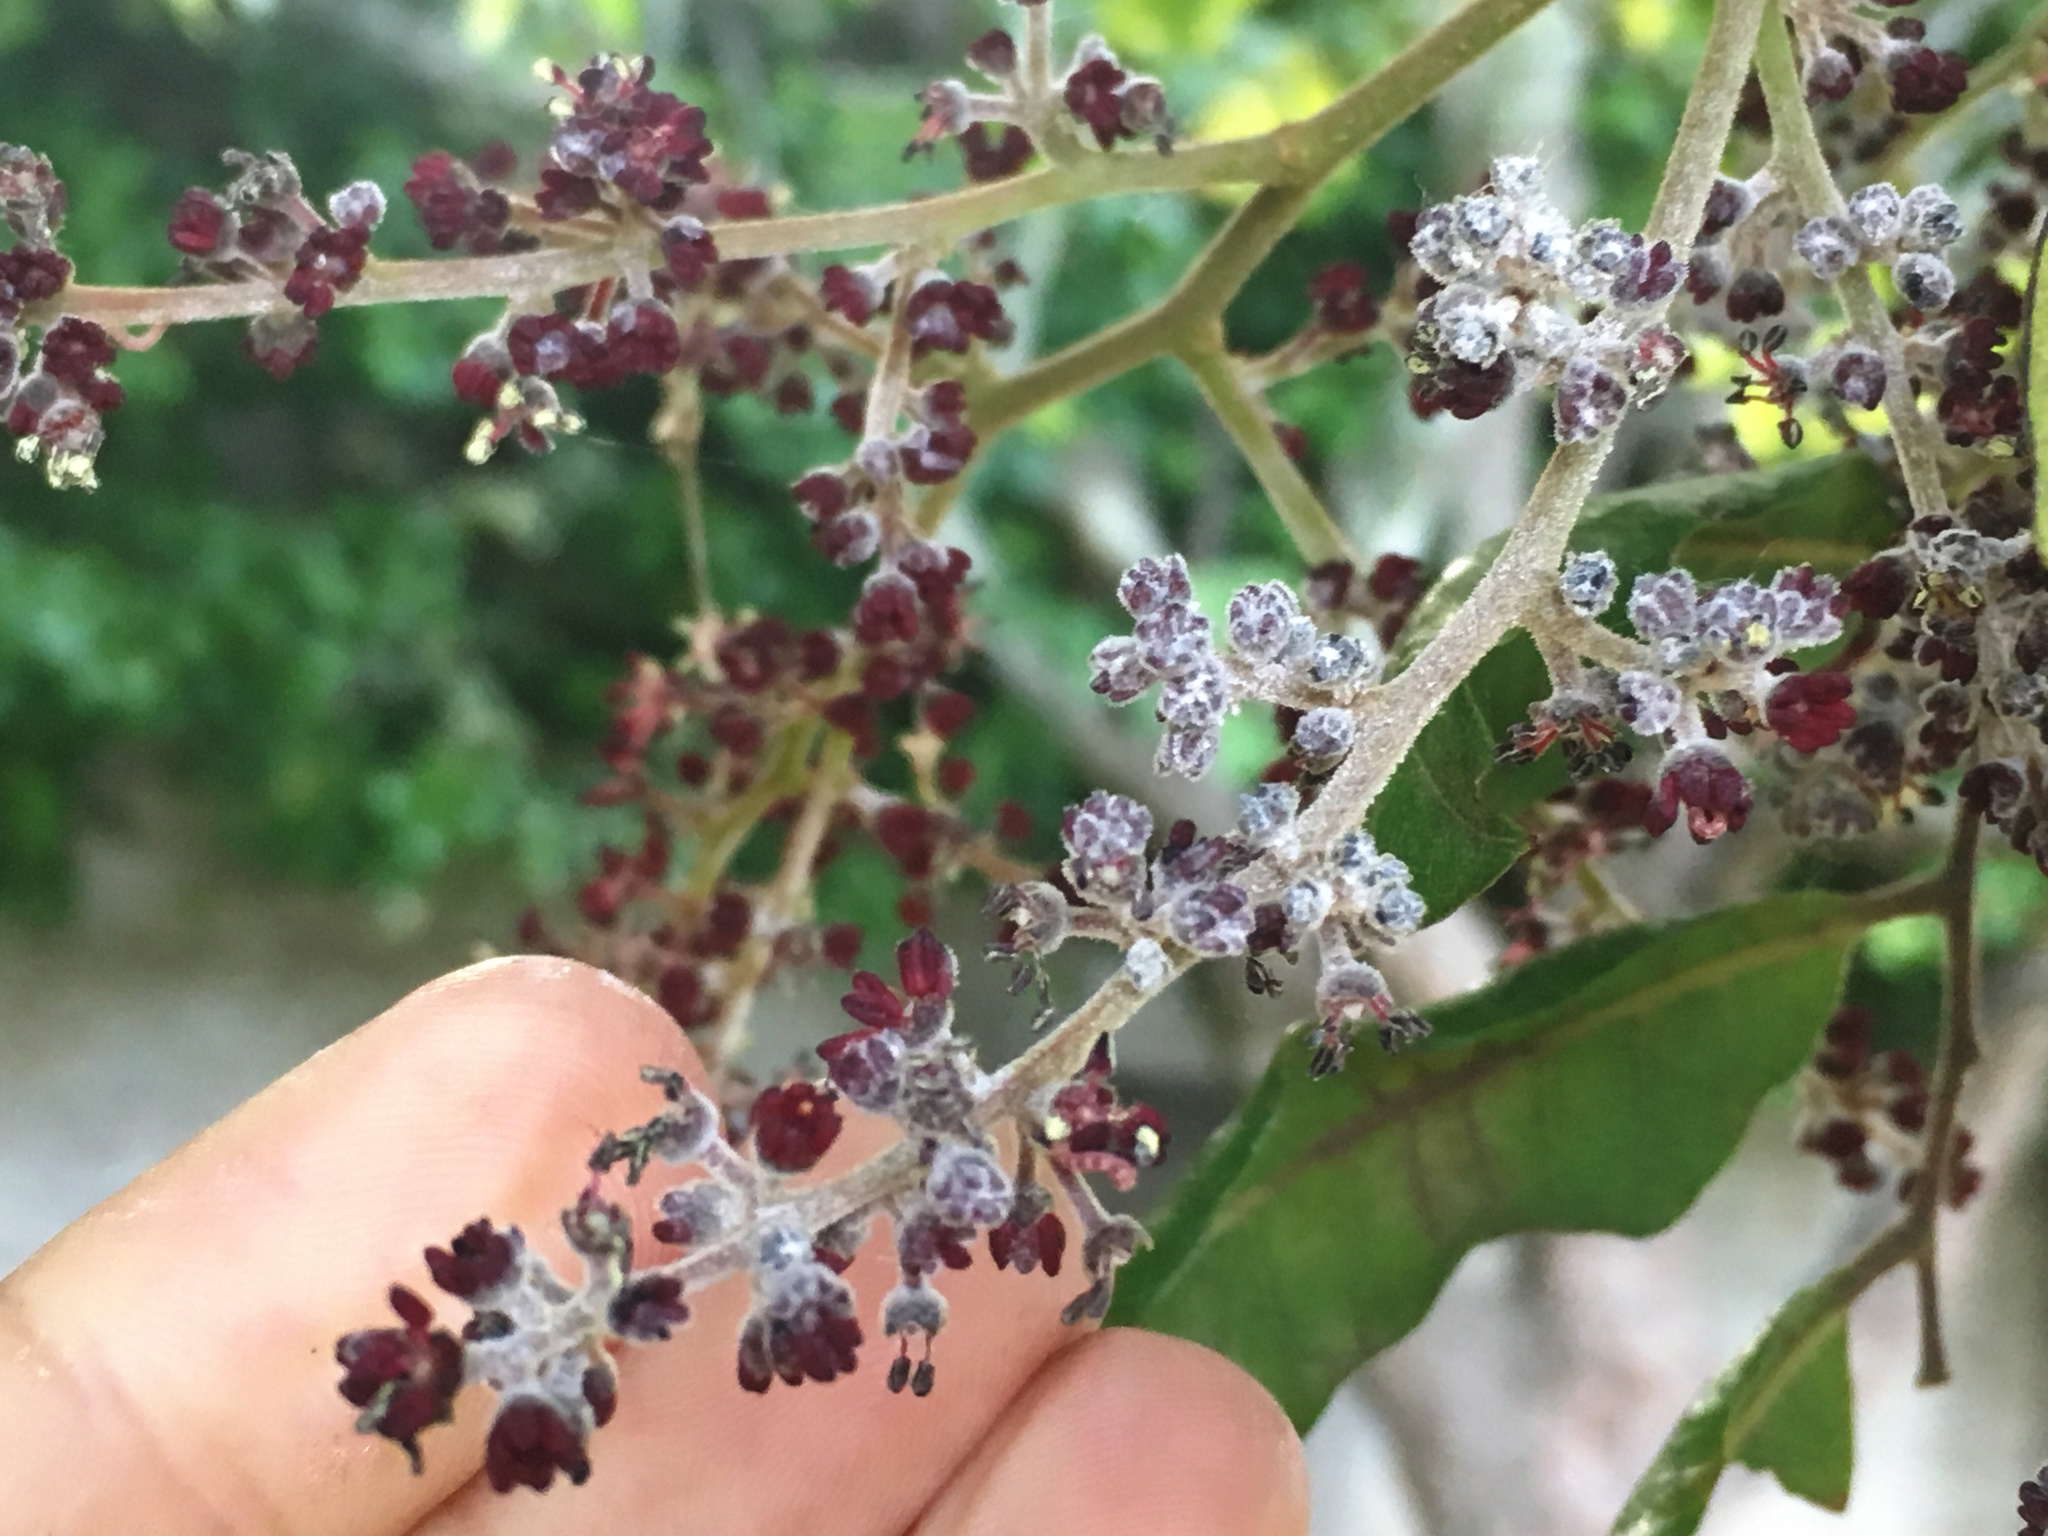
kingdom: Fungi
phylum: Ascomycota
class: Leotiomycetes
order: Helotiales
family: Erysiphaceae
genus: Sawadaea
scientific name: Sawadaea bicornis
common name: Maple mildew
